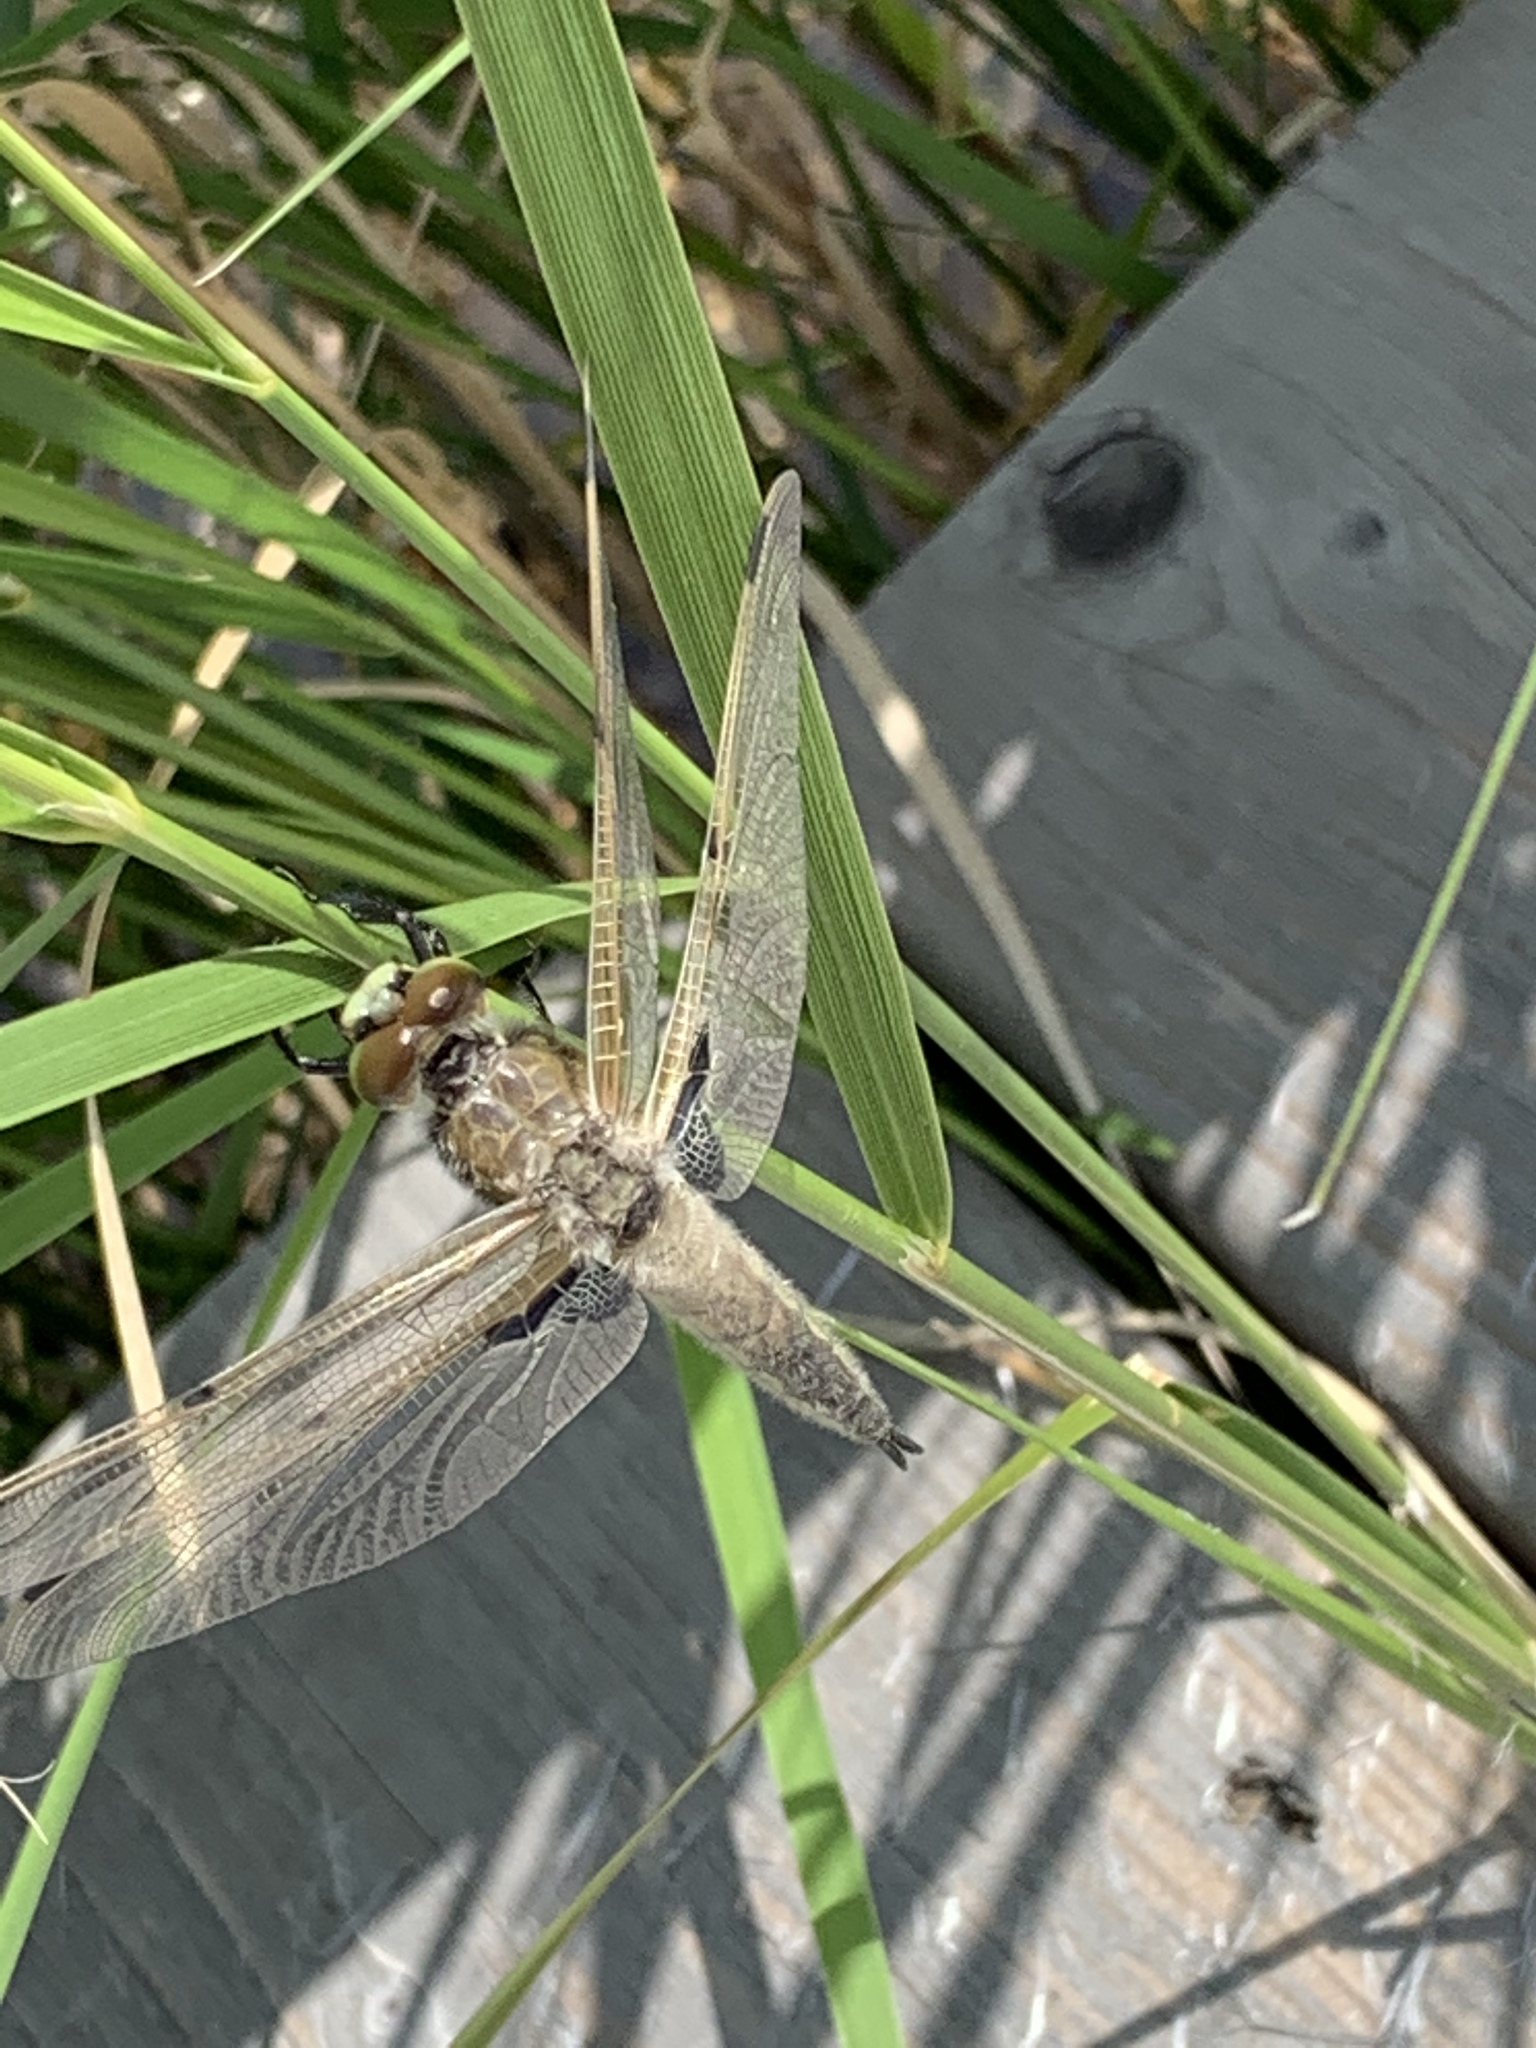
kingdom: Animalia
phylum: Arthropoda
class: Insecta
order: Odonata
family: Libellulidae
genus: Libellula
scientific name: Libellula quadrimaculata
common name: Four-spotted chaser
